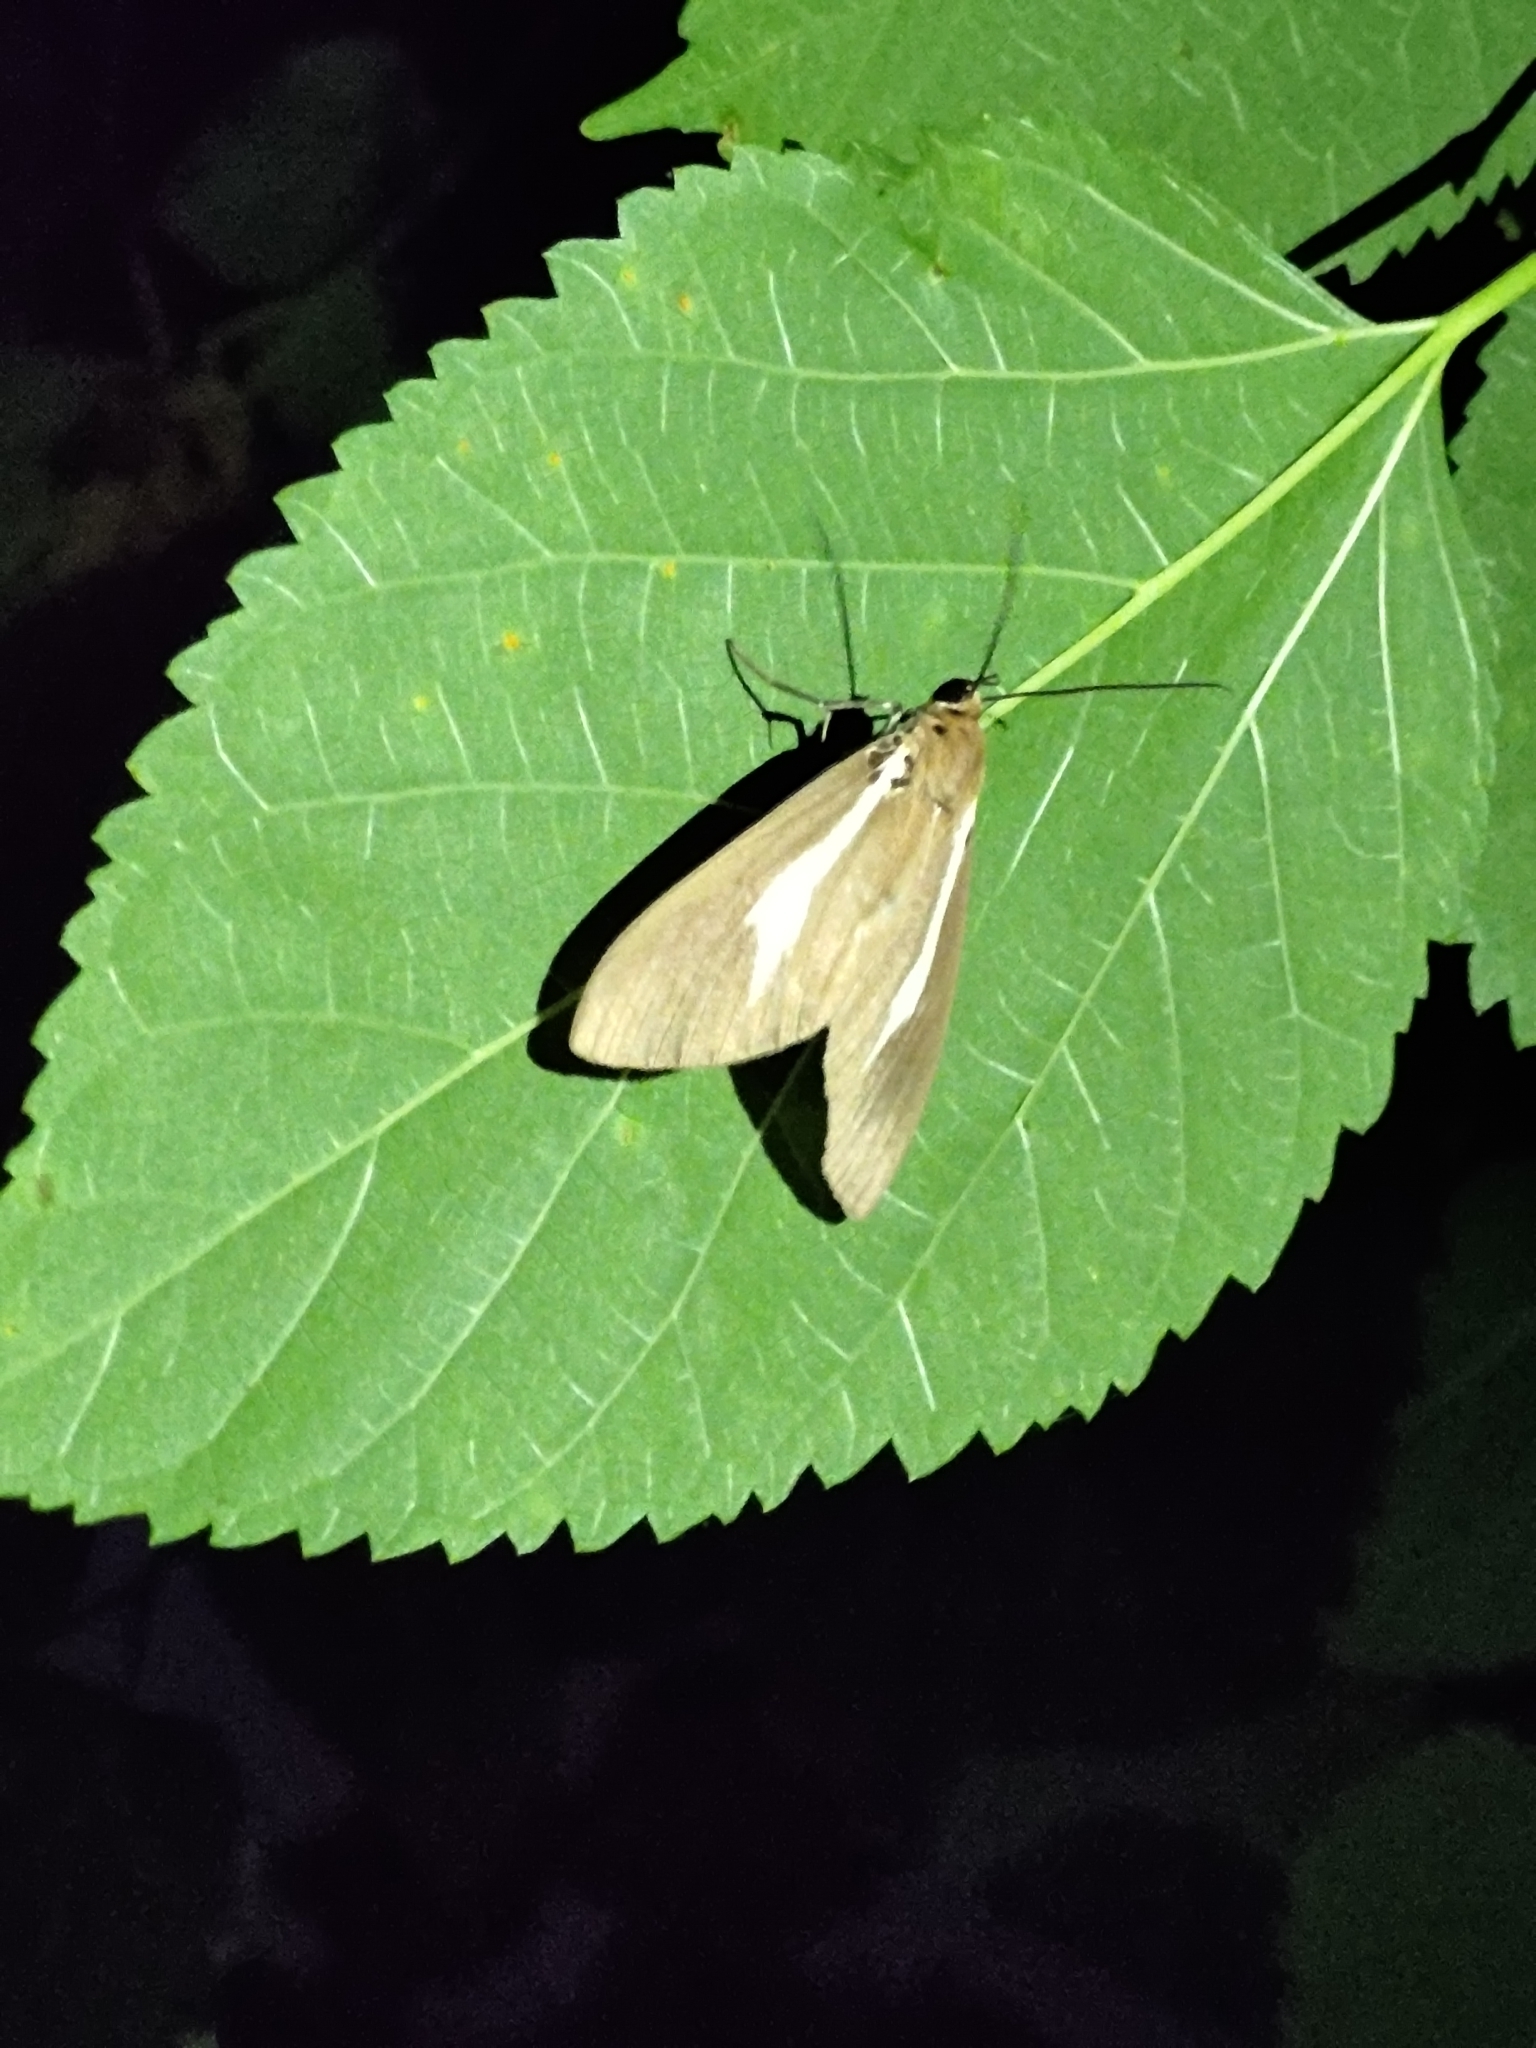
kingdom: Animalia
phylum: Arthropoda
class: Insecta
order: Lepidoptera
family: Erebidae
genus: Asota
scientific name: Asota heliconia
